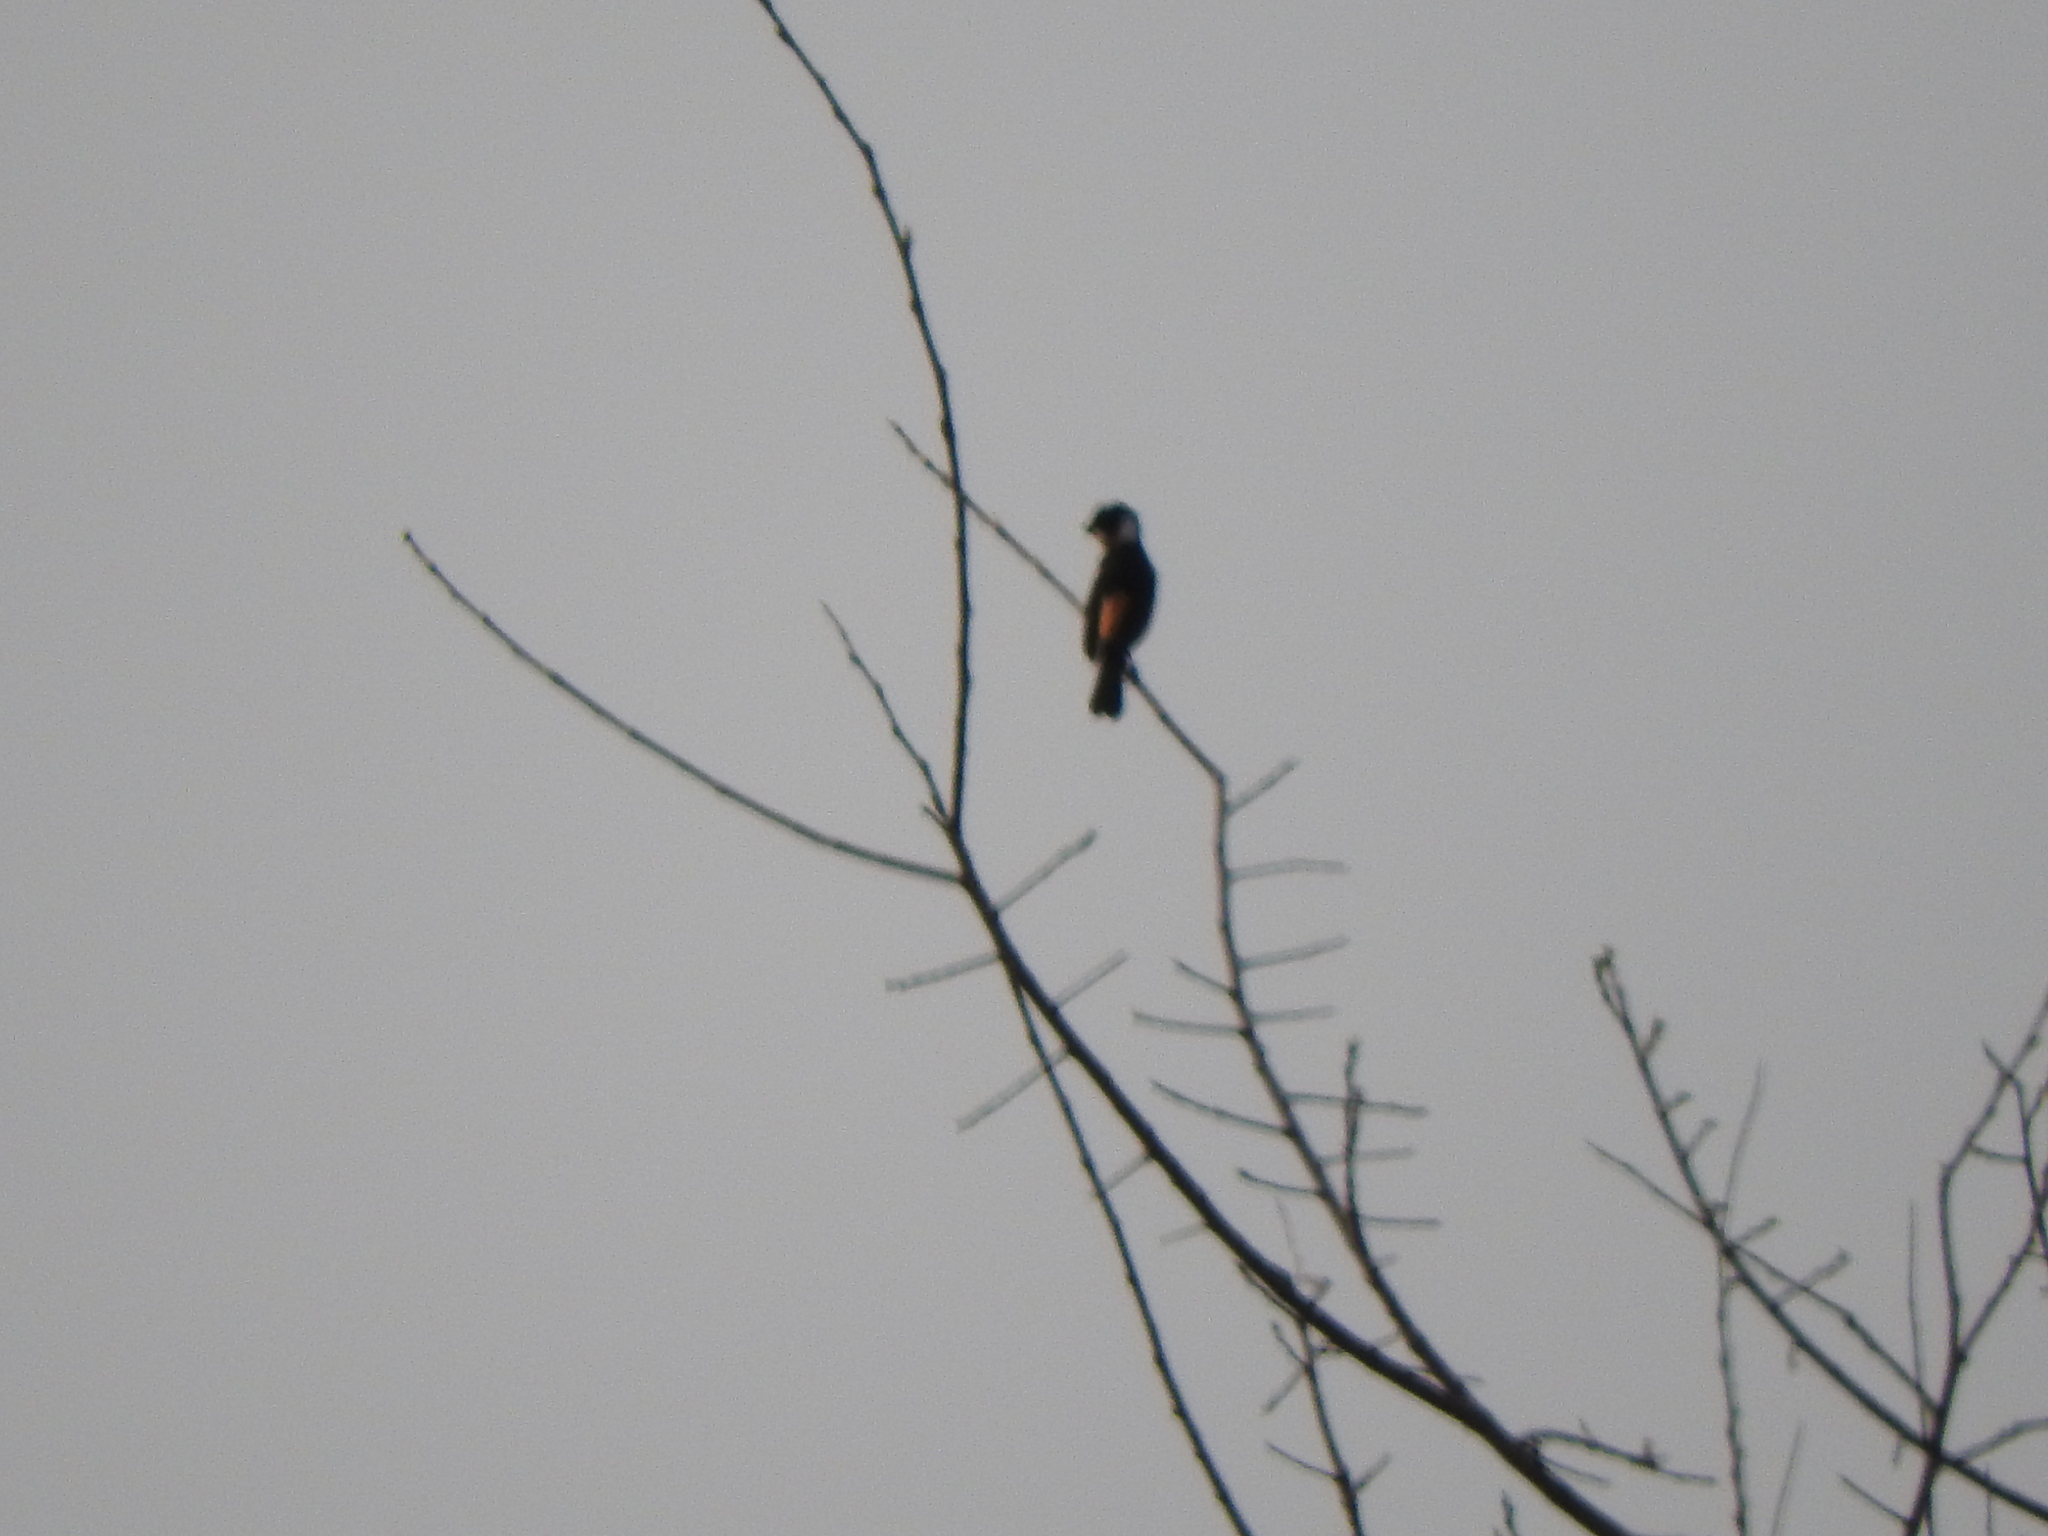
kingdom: Animalia
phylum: Chordata
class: Aves
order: Passeriformes
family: Thraupidae
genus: Sporophila
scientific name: Sporophila torqueola
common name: White-collared seedeater
